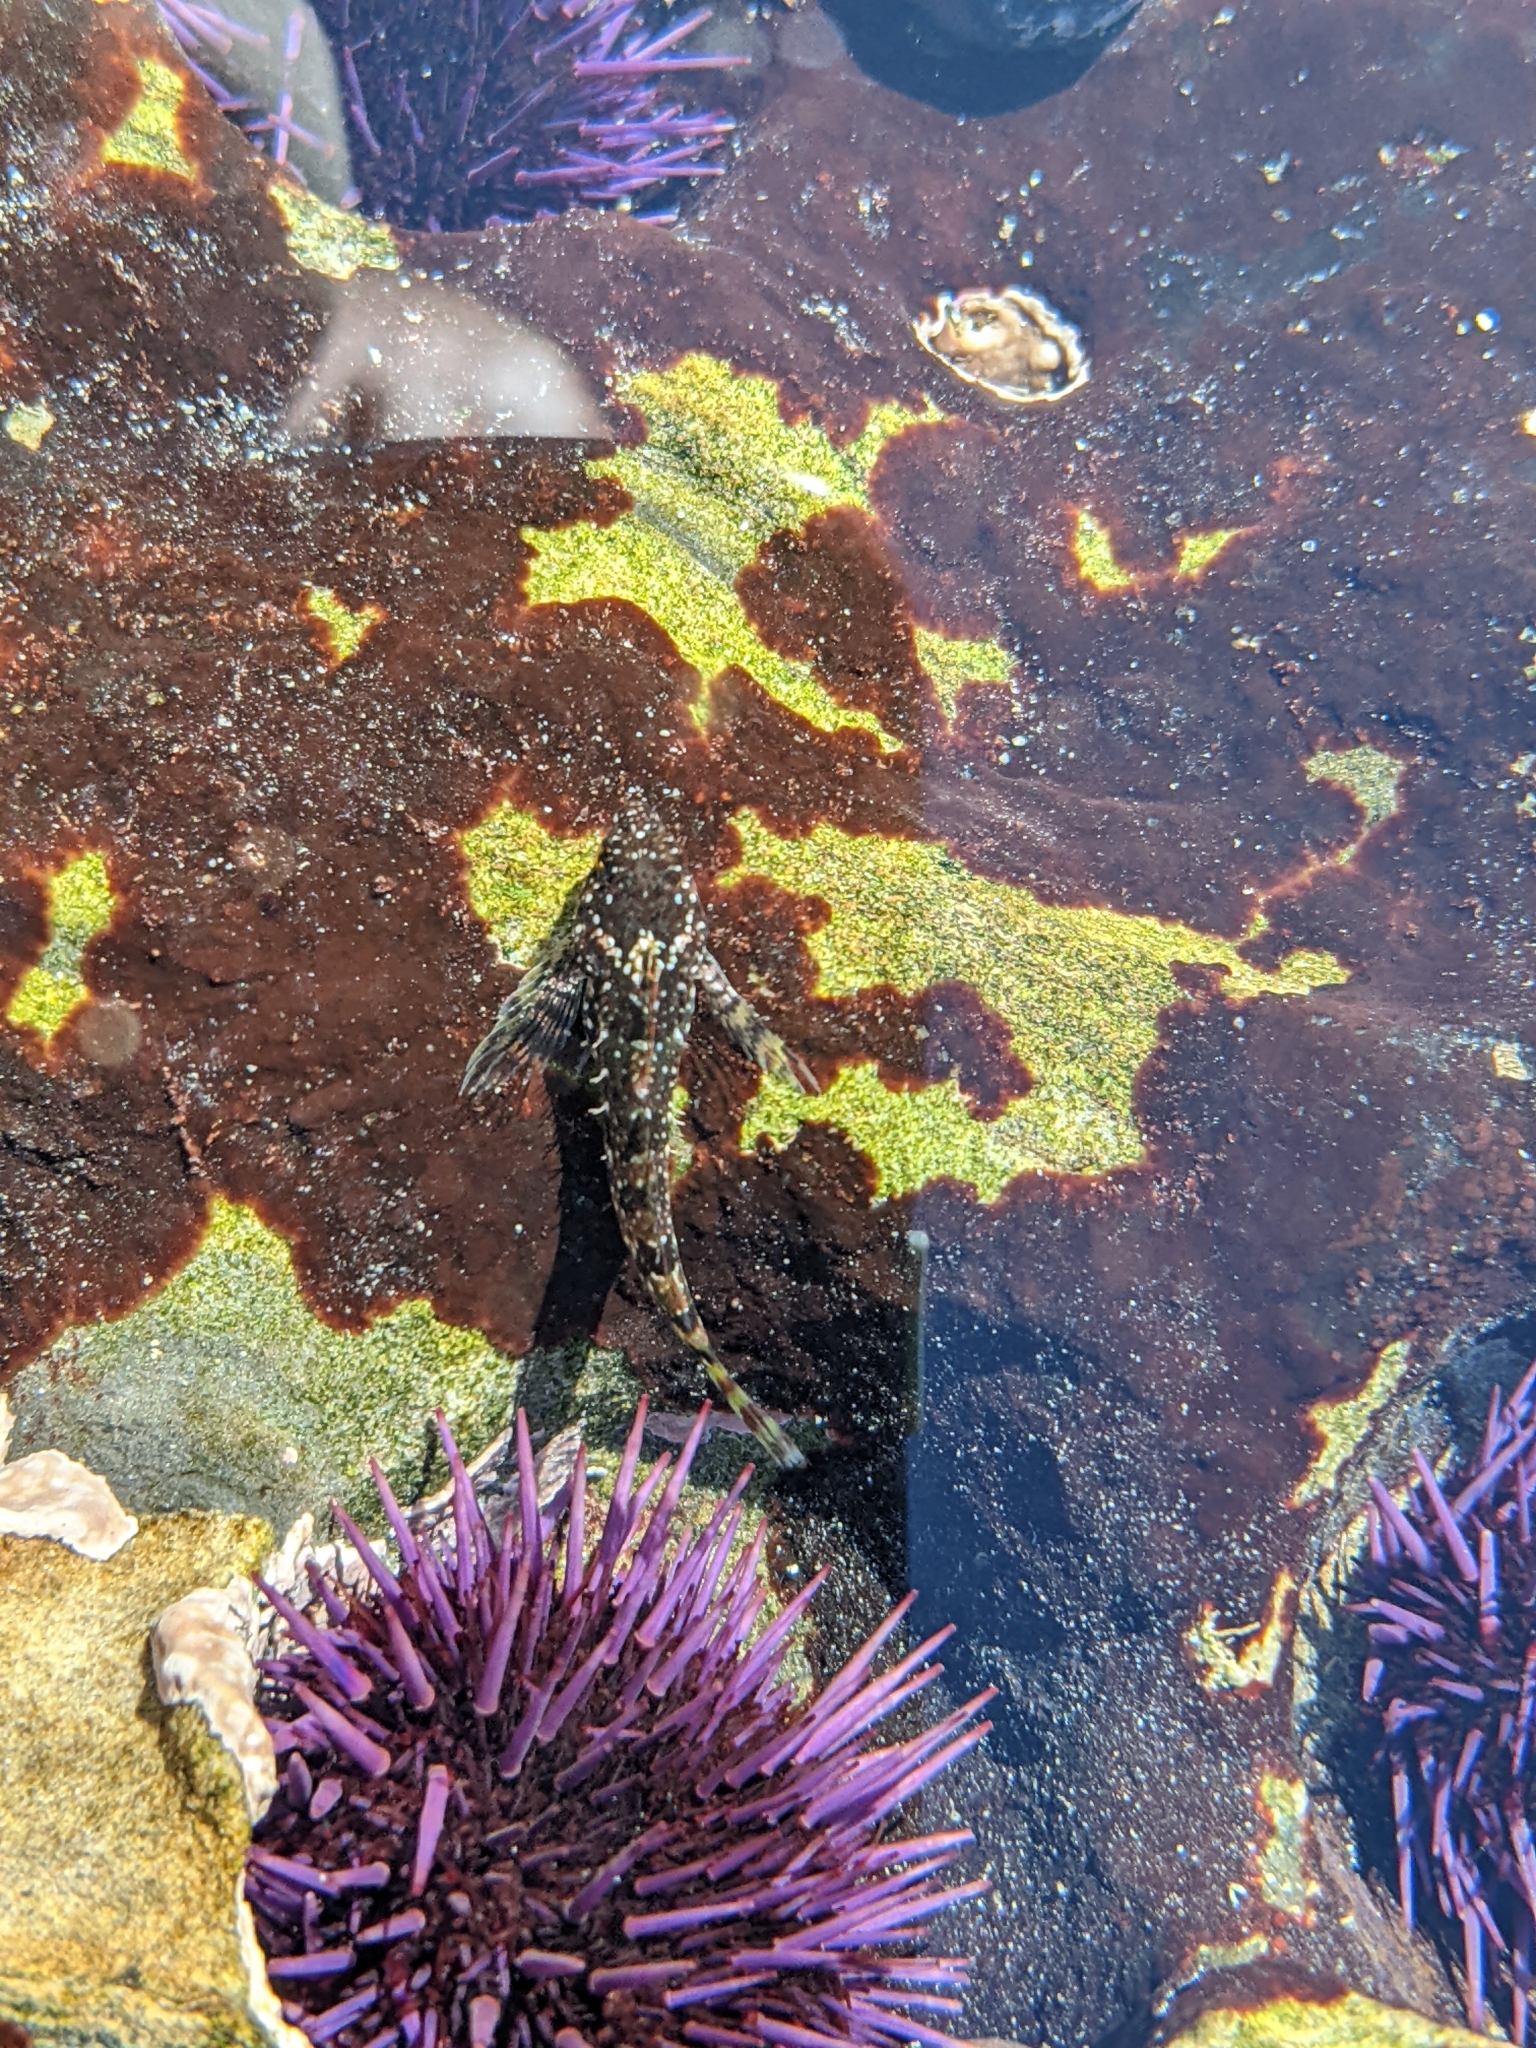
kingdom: Animalia
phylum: Chordata
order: Scorpaeniformes
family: Cottidae
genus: Clinocottus
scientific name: Clinocottus analis
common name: Woolly sculpin
